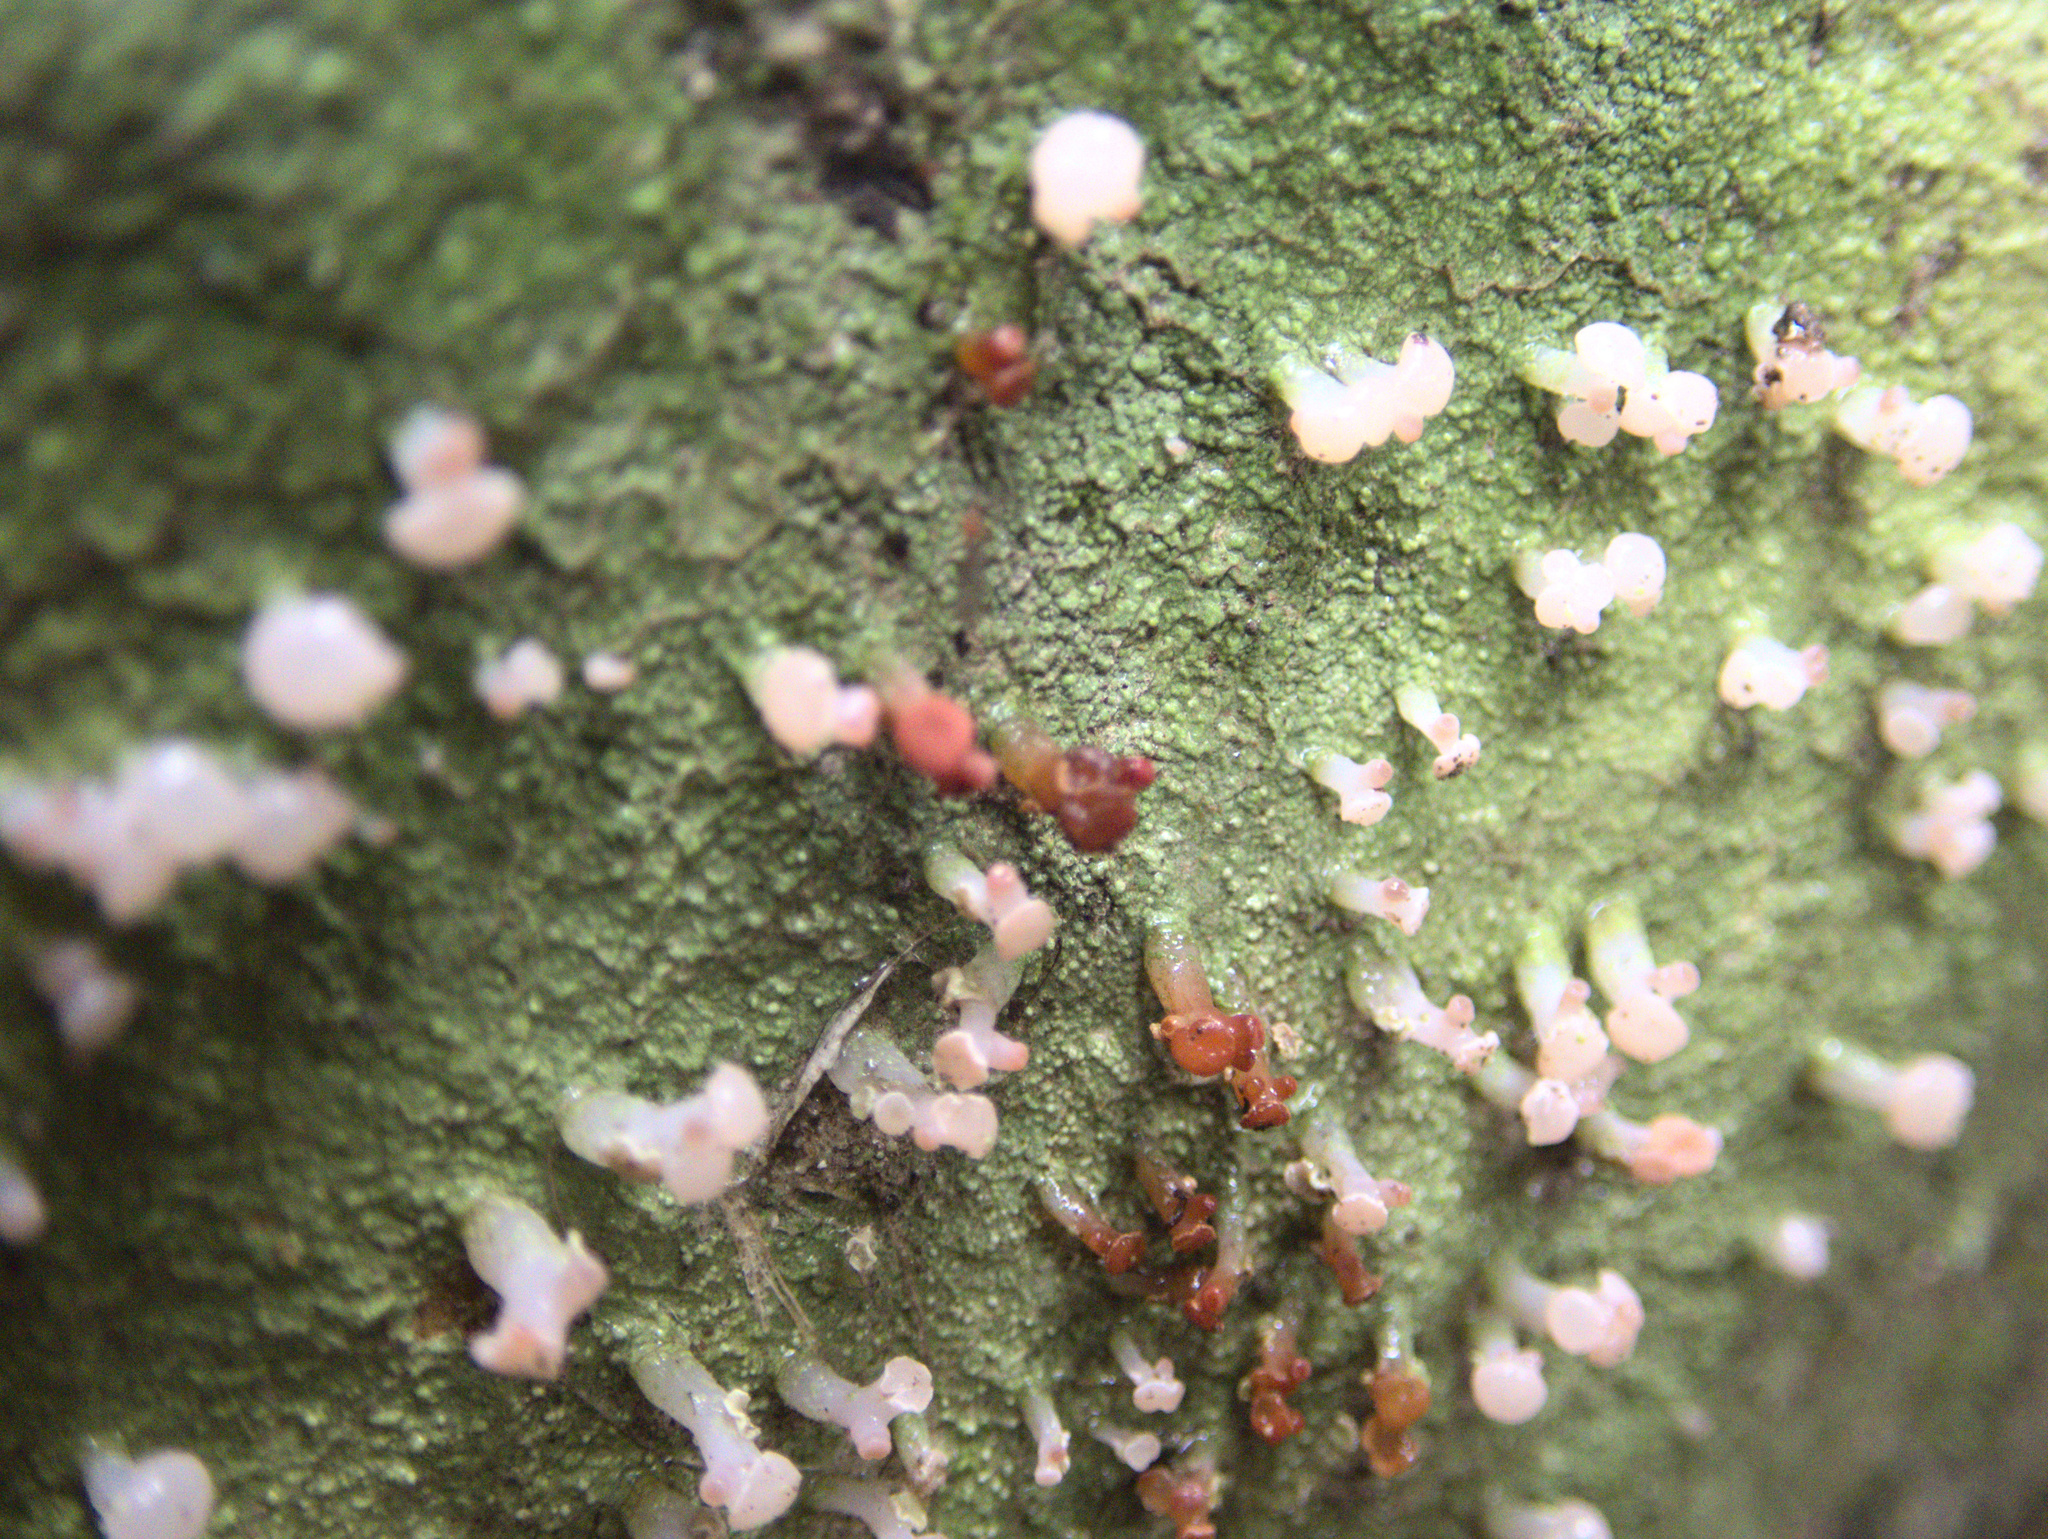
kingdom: Fungi
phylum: Ascomycota
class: Lecanoromycetes
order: Baeomycetales
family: Baeomycetaceae
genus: Baeomyces
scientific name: Baeomyces heteromorphus
